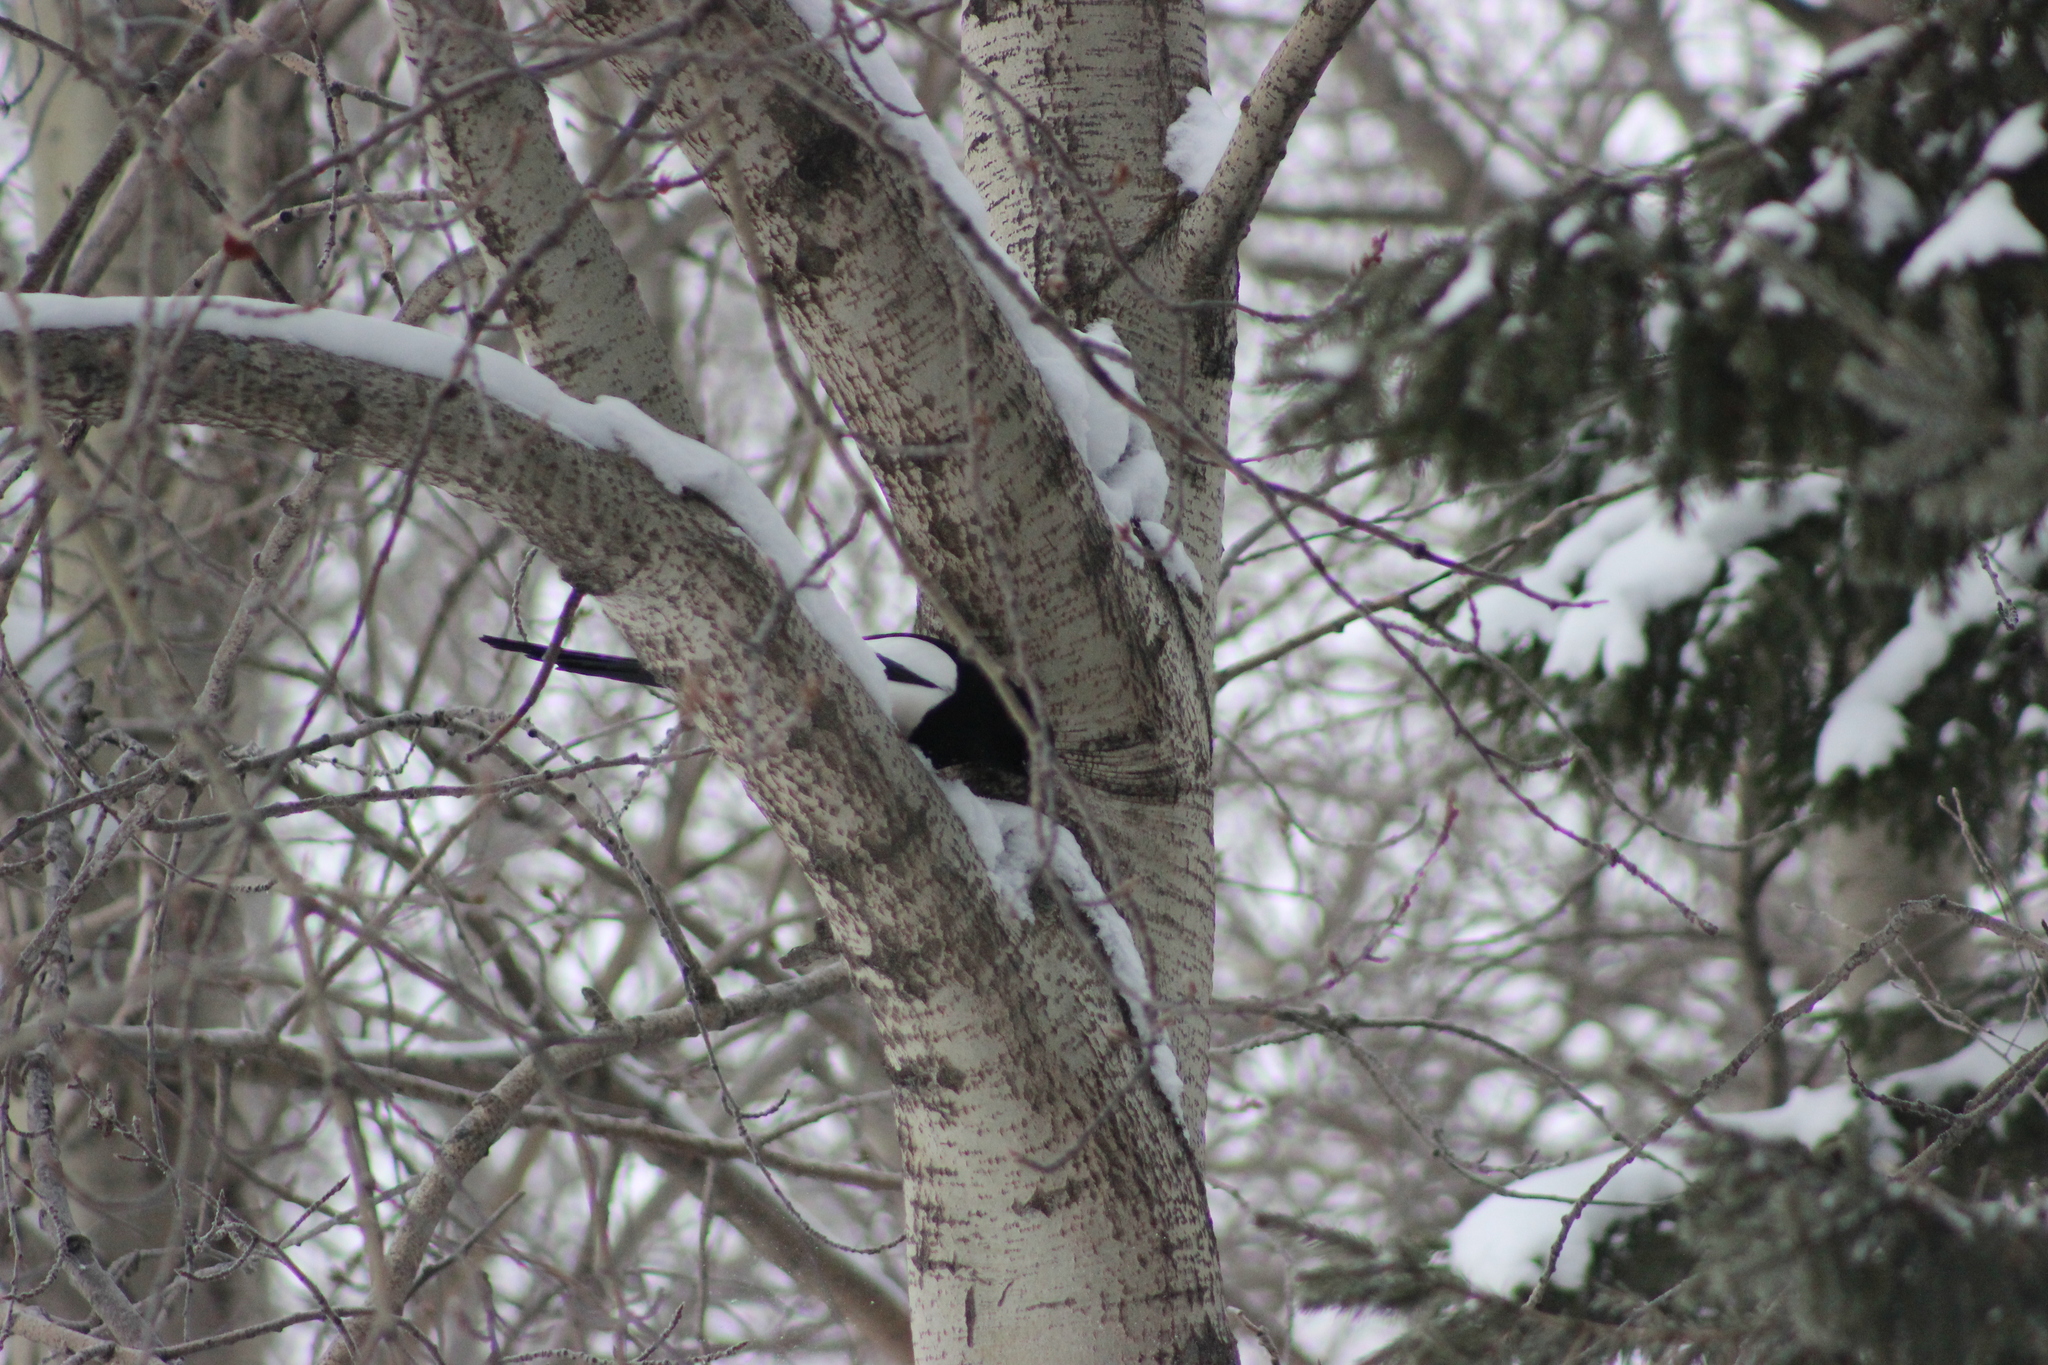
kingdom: Animalia
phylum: Chordata
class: Aves
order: Passeriformes
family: Corvidae
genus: Pica
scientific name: Pica pica
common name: Eurasian magpie
